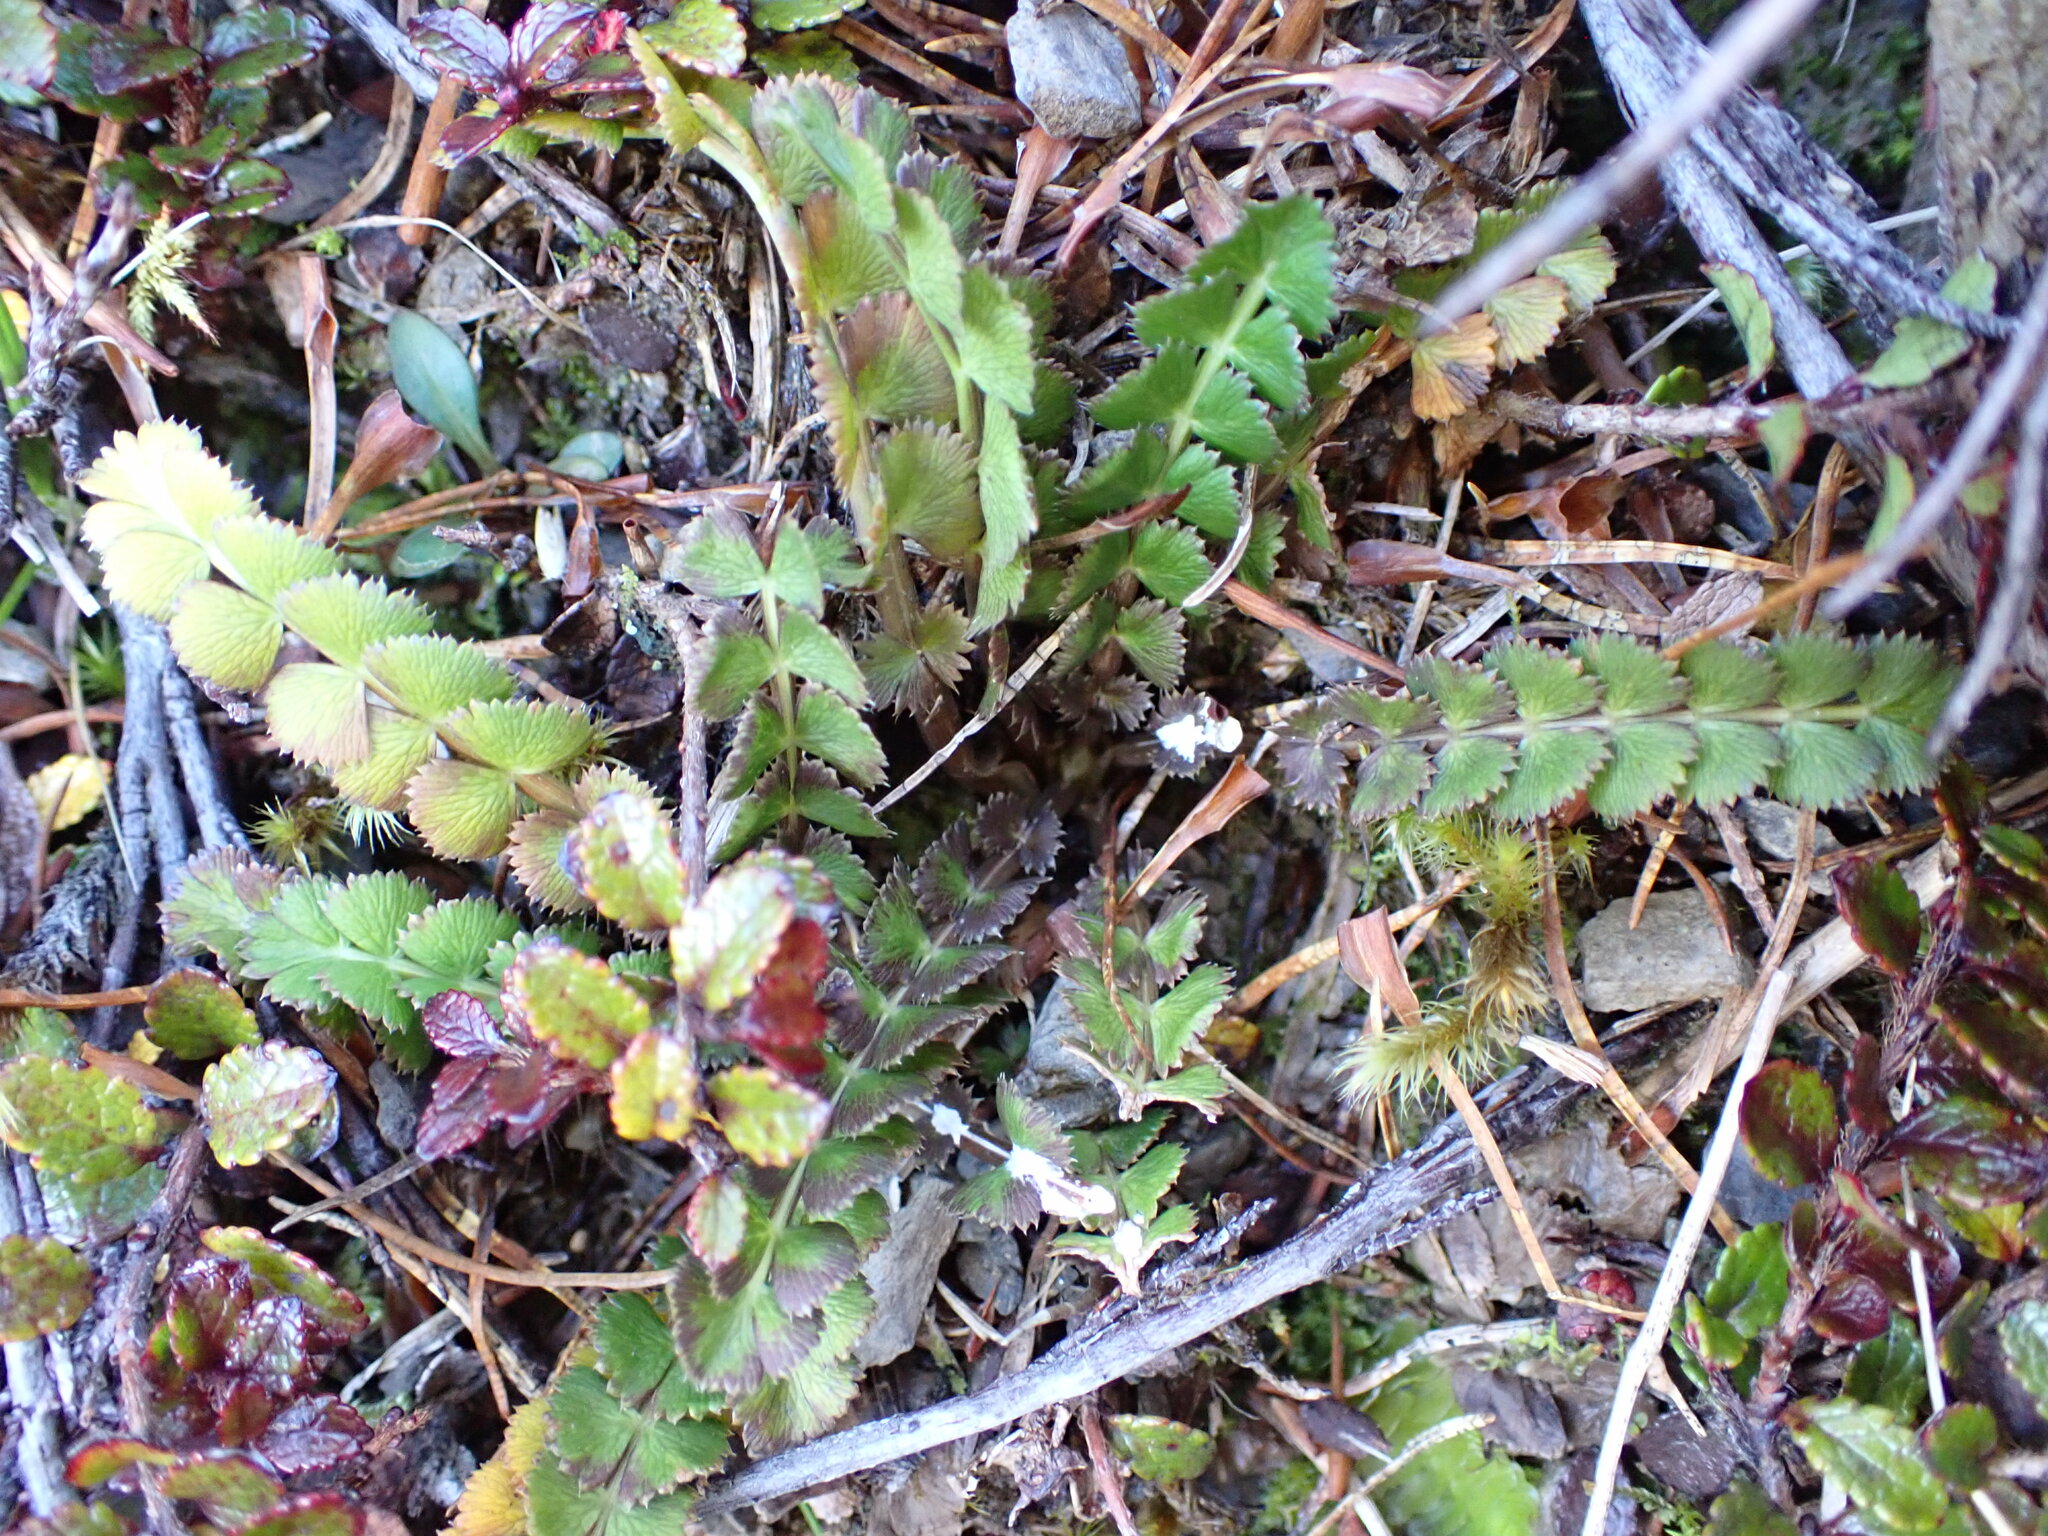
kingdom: Plantae
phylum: Tracheophyta
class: Magnoliopsida
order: Apiales
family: Apiaceae
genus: Anisotome
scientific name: Anisotome aromatica
